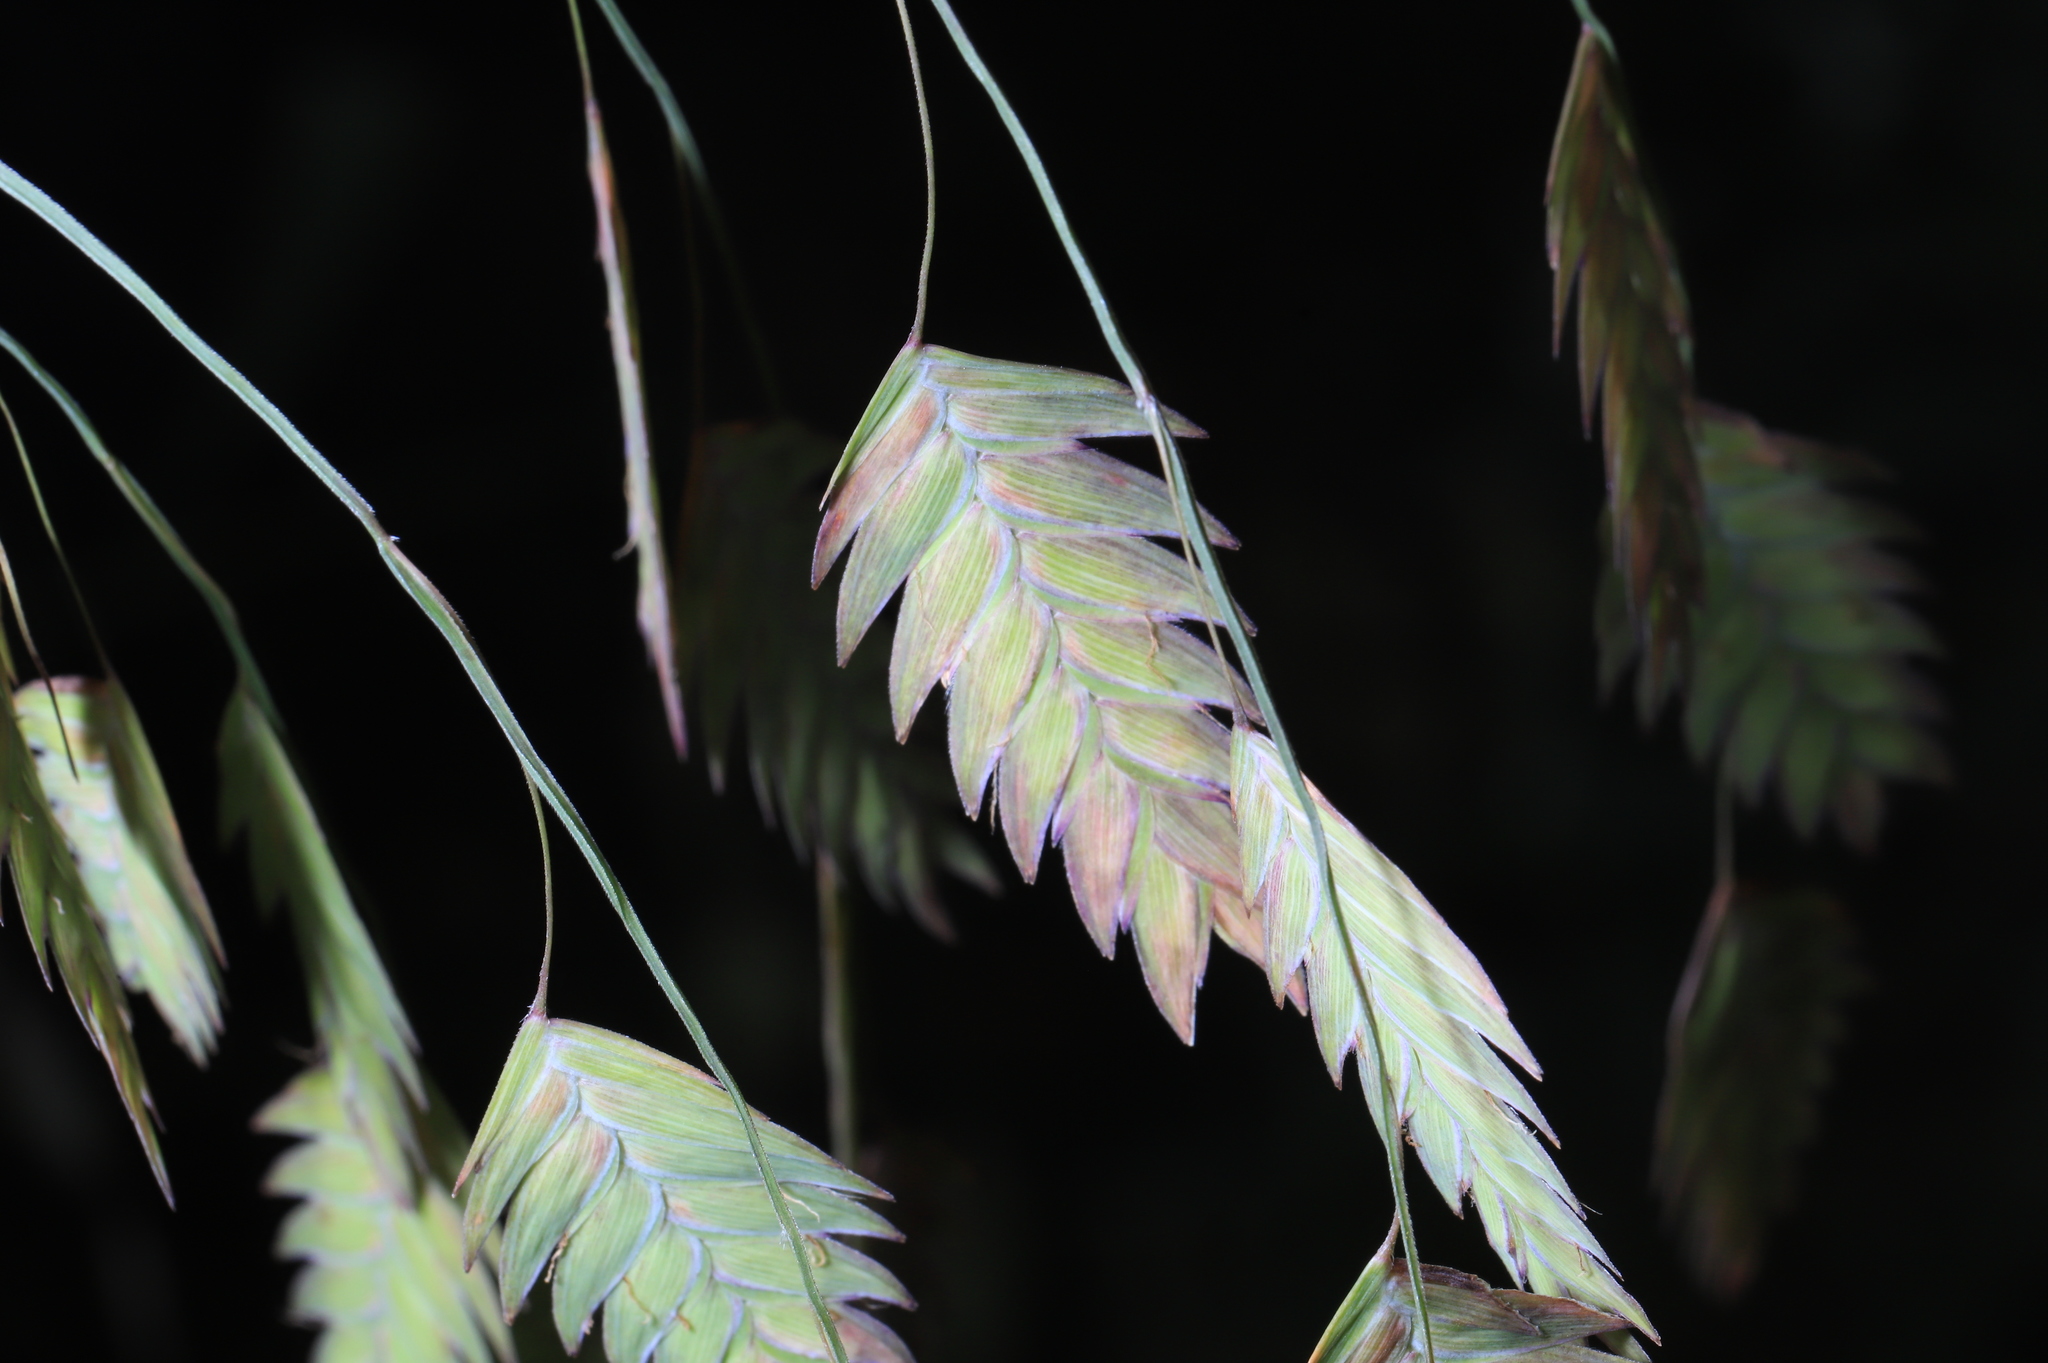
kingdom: Plantae
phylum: Tracheophyta
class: Liliopsida
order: Poales
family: Poaceae
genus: Chasmanthium
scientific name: Chasmanthium latifolium
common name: Broad-leaved chasmanthium
